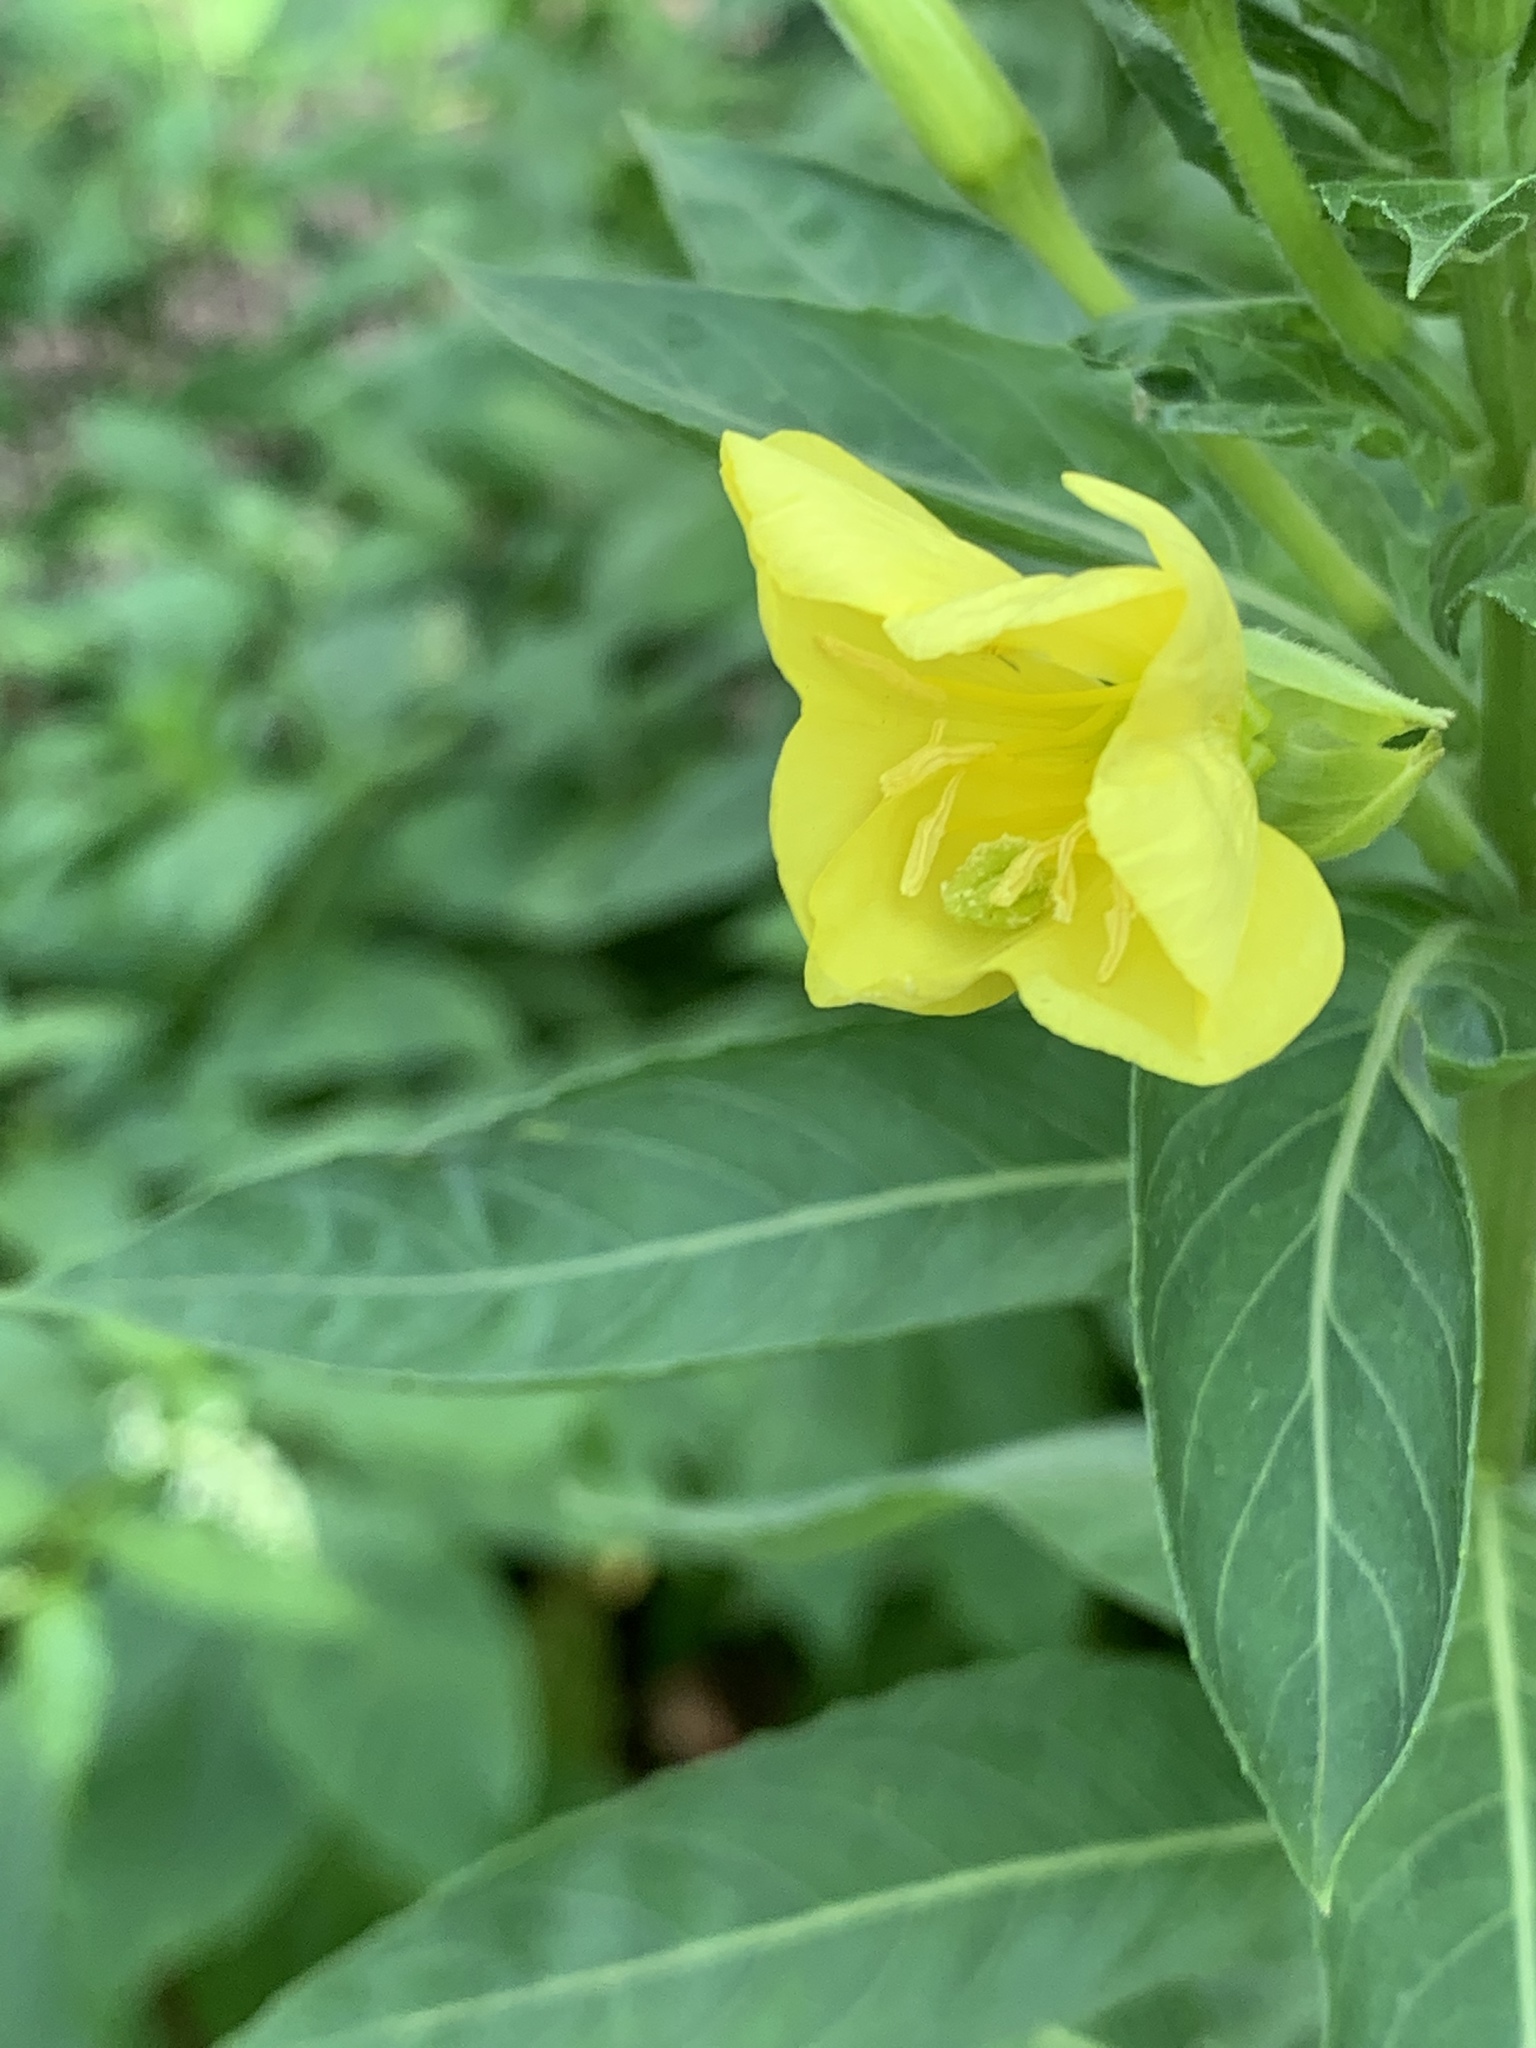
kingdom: Plantae
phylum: Tracheophyta
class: Magnoliopsida
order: Myrtales
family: Onagraceae
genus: Oenothera
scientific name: Oenothera biennis
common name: Common evening-primrose
